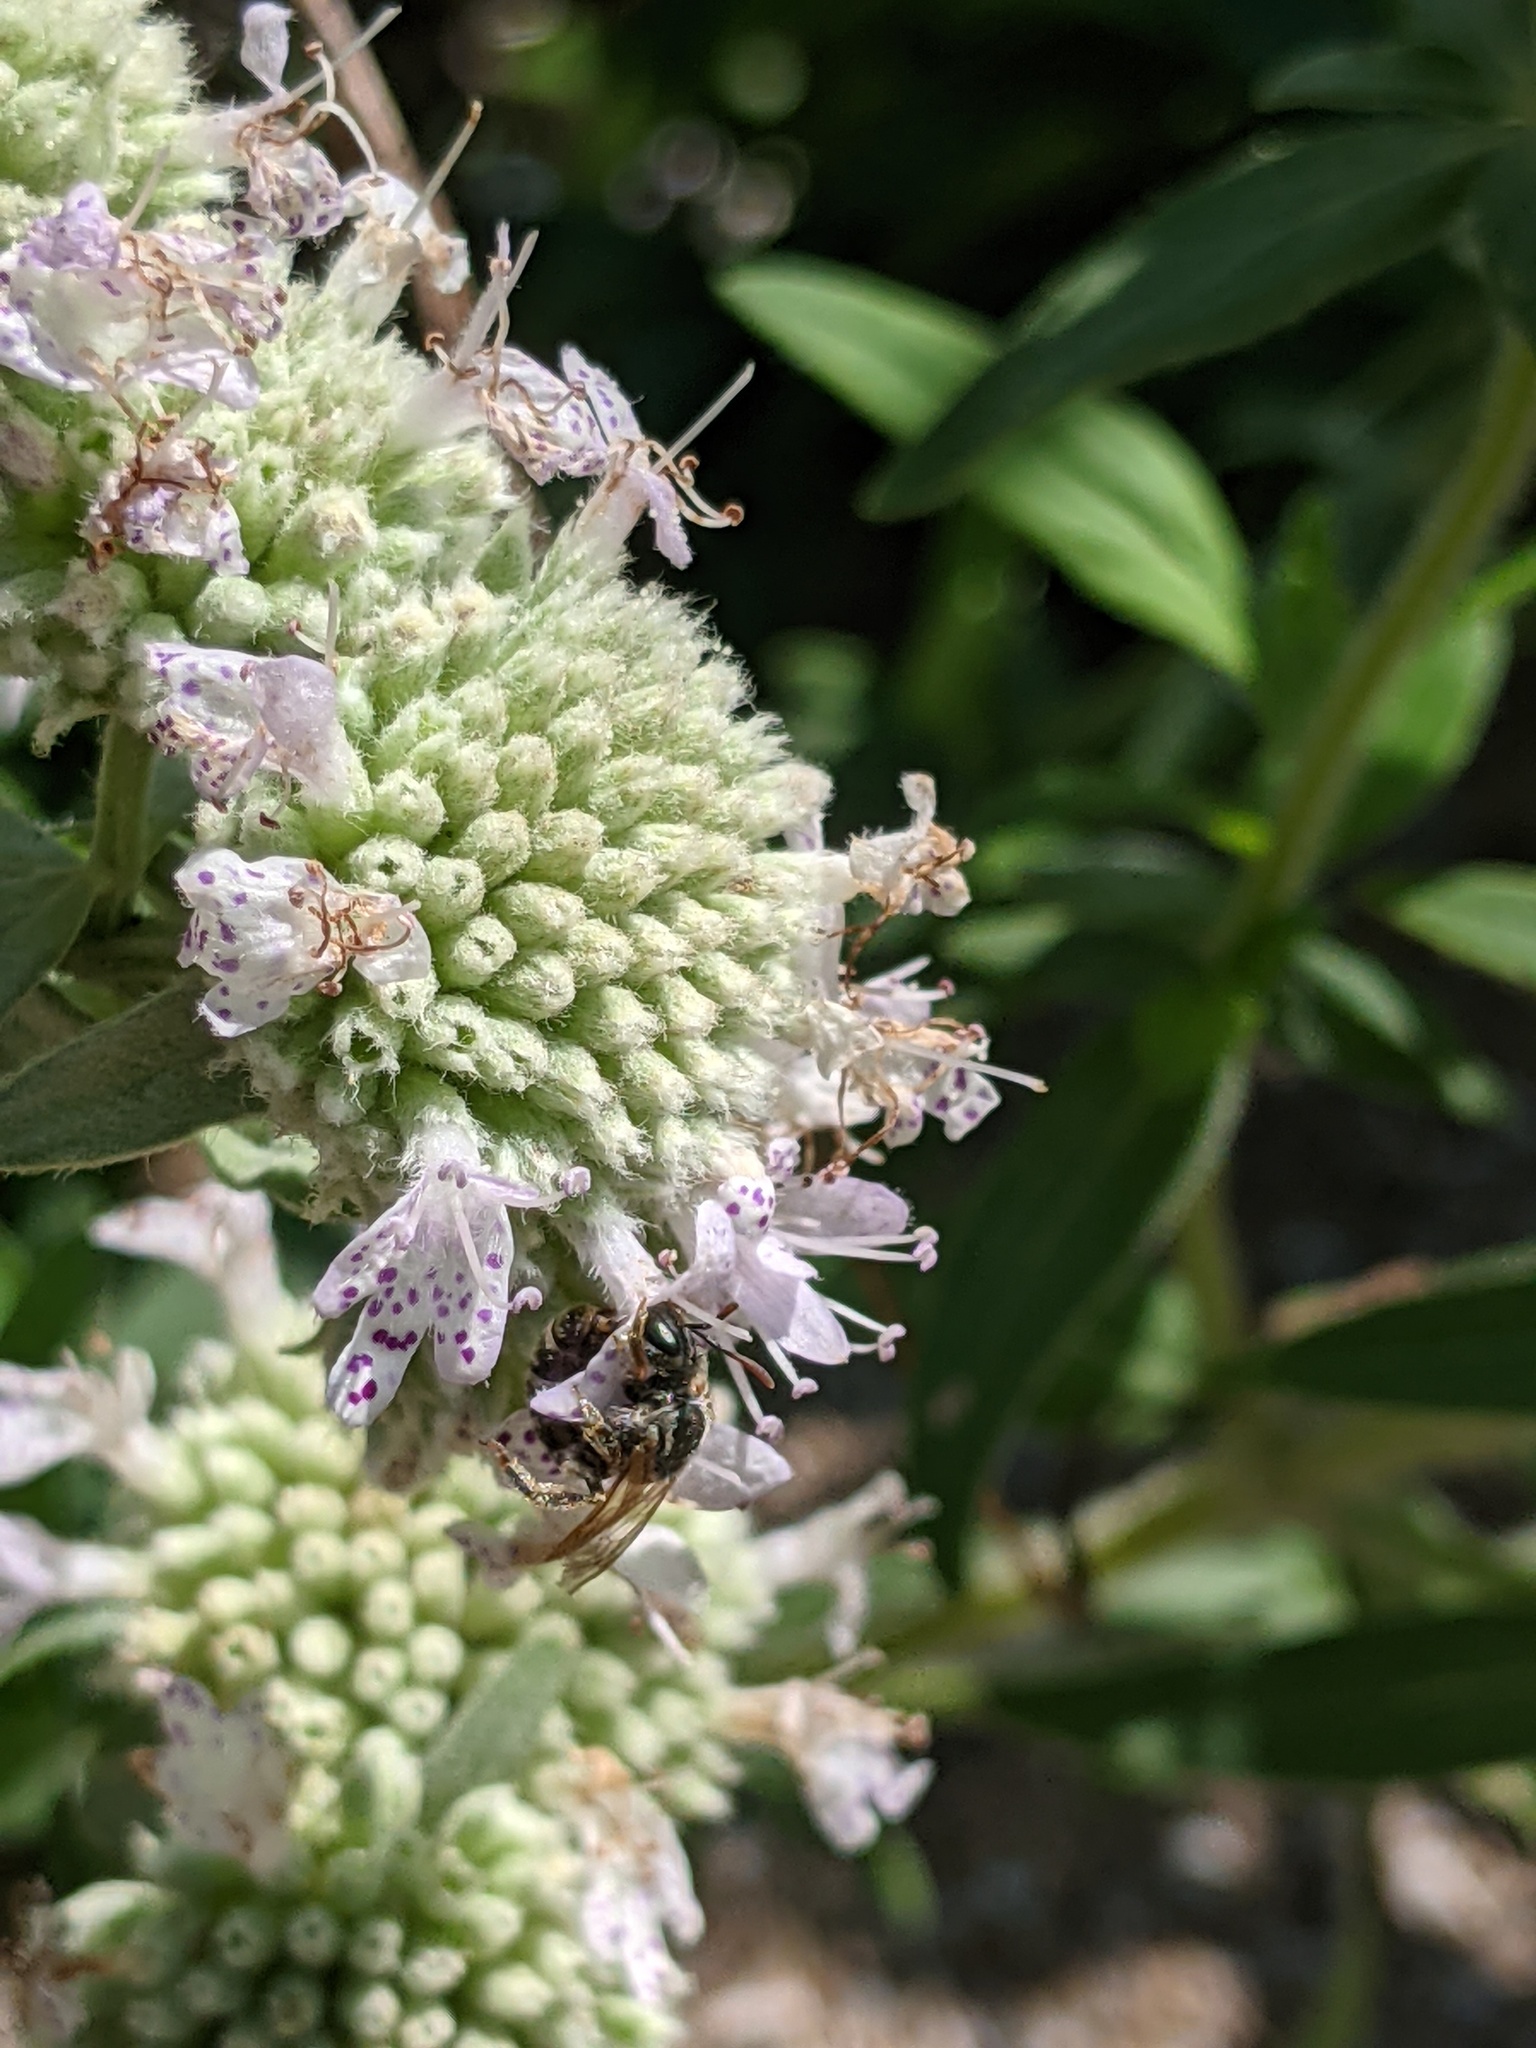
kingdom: Animalia
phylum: Arthropoda
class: Insecta
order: Hymenoptera
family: Halictidae
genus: Halictus
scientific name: Halictus confusus
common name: Southern bronze furrow bee
